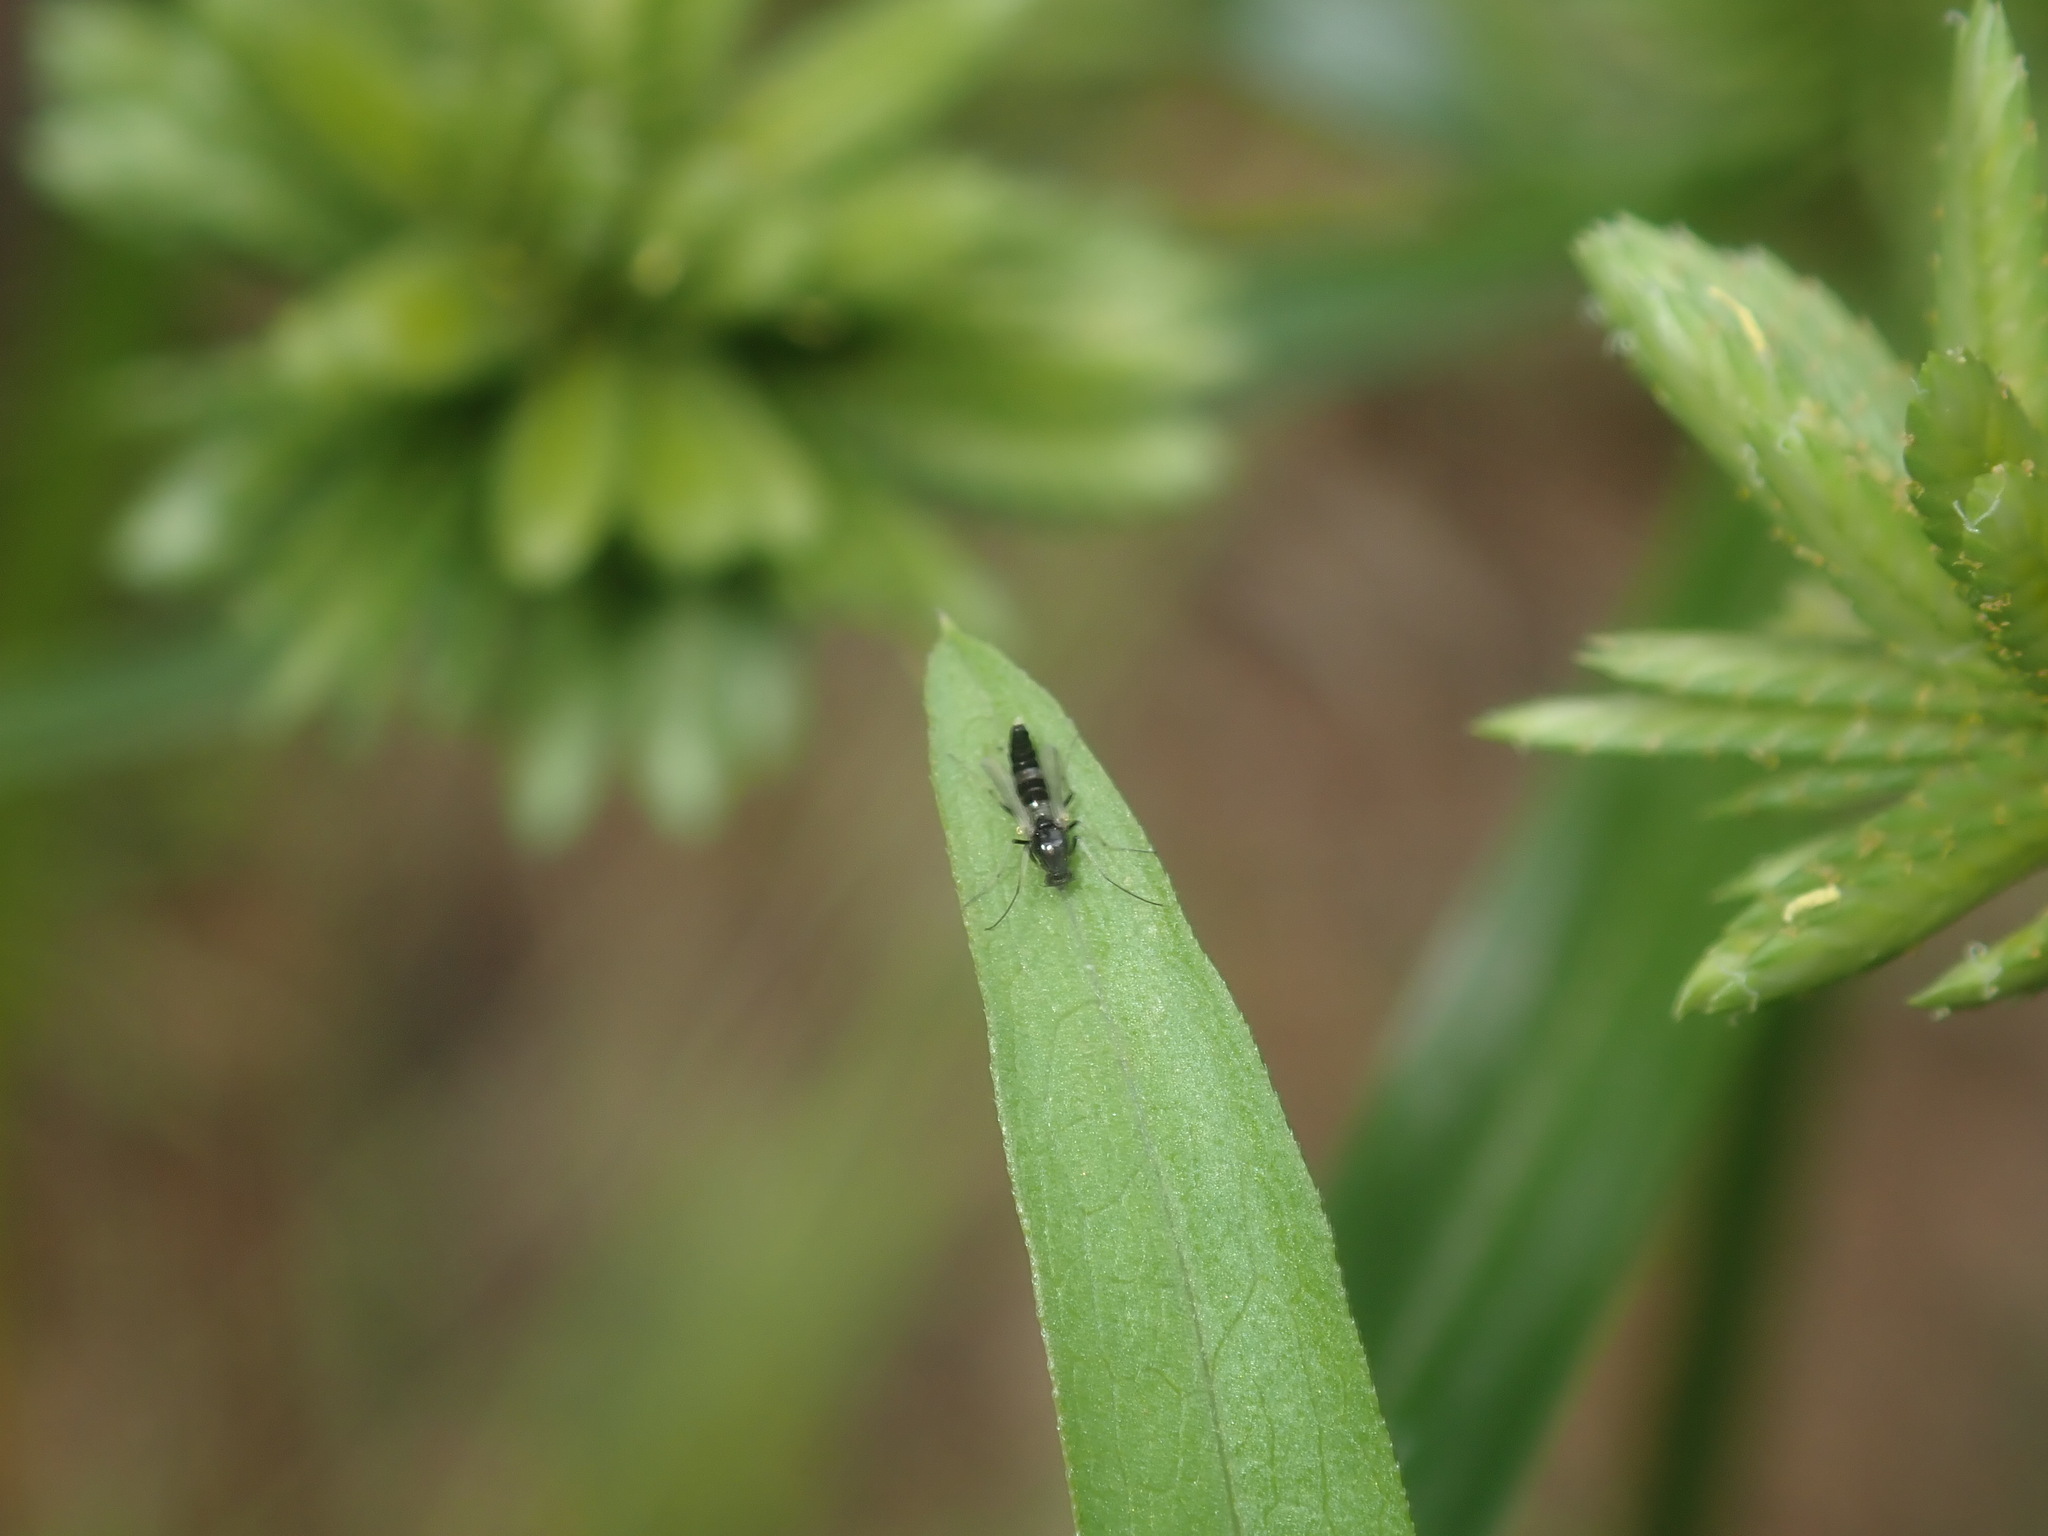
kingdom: Animalia
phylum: Arthropoda
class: Insecta
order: Diptera
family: Chironomidae
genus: Cricotopus
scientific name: Cricotopus albitarsis
